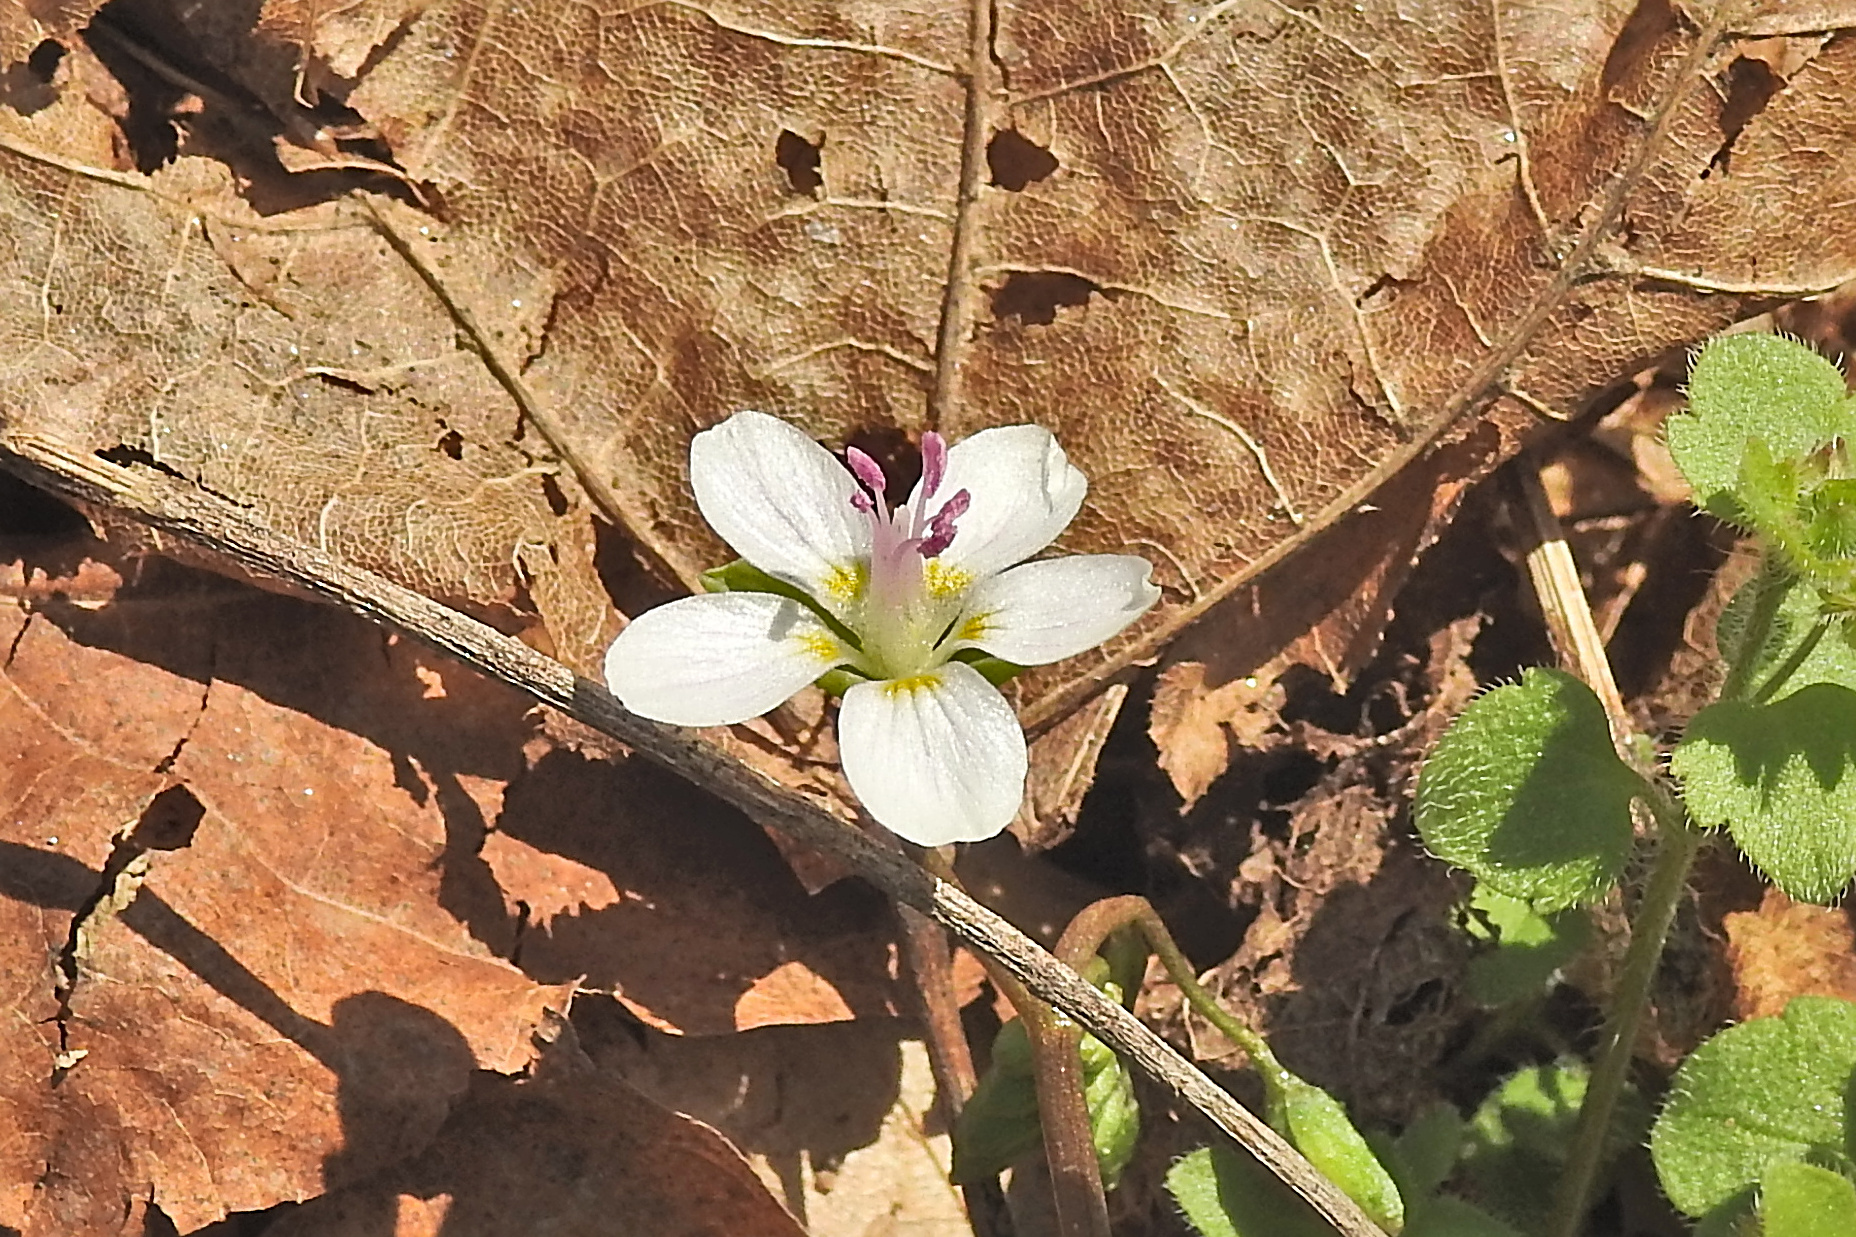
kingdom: Plantae
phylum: Tracheophyta
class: Magnoliopsida
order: Caryophyllales
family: Montiaceae
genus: Claytonia
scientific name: Claytonia virginica
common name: Virginia springbeauty
